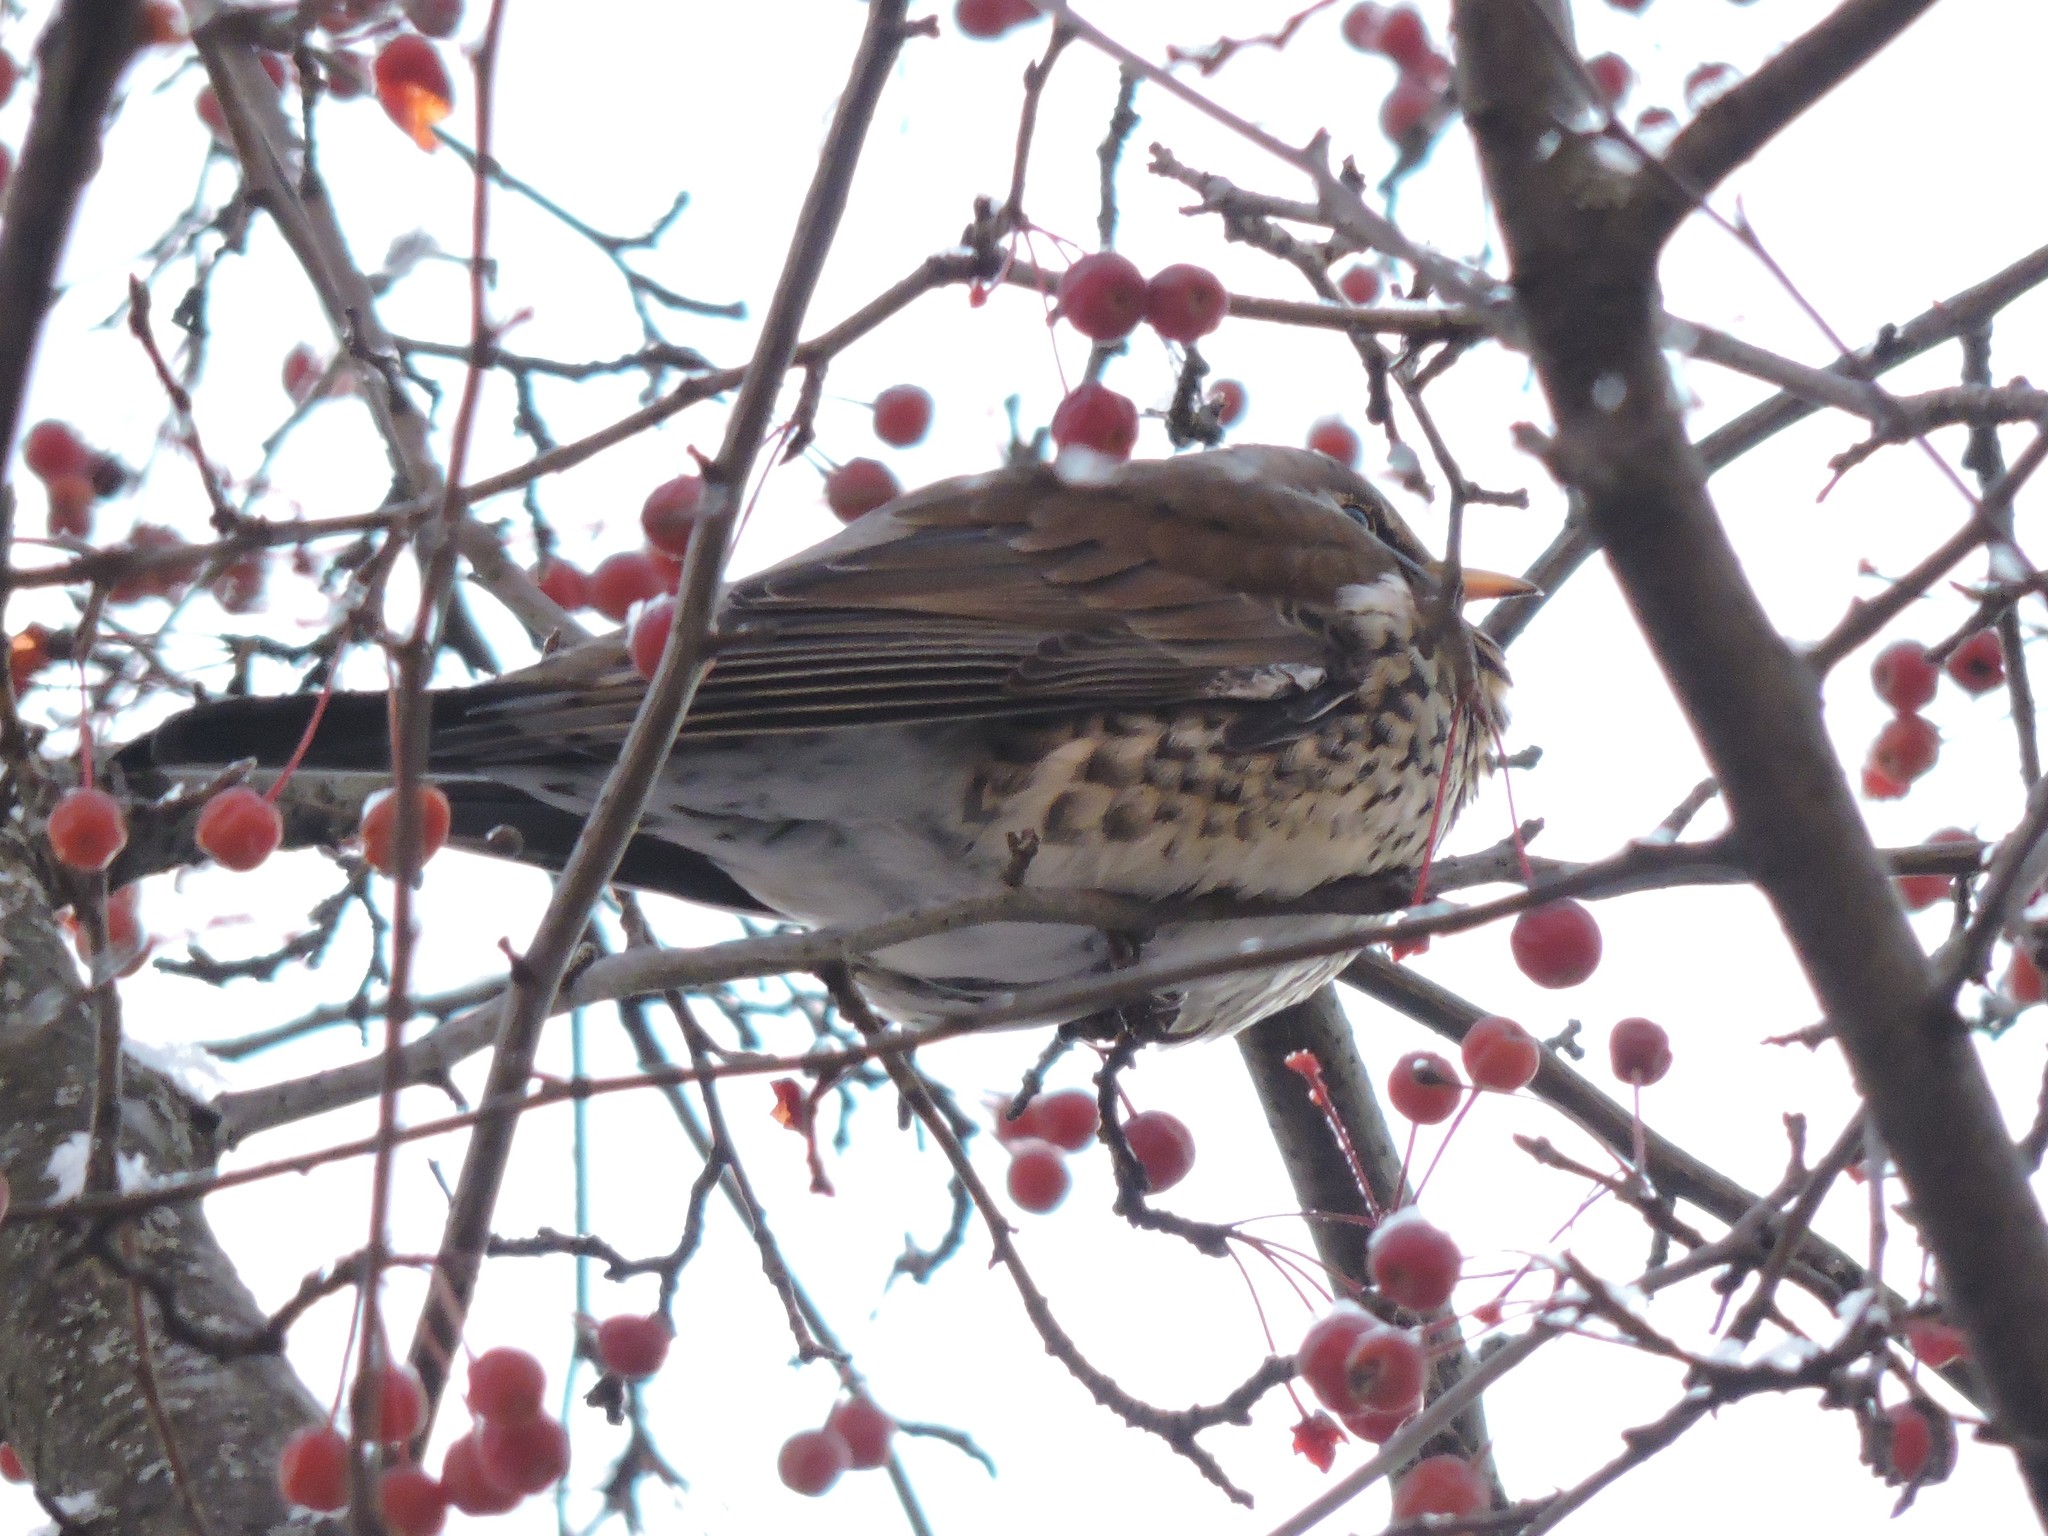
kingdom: Animalia
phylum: Chordata
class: Aves
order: Passeriformes
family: Turdidae
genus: Turdus
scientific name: Turdus pilaris
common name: Fieldfare
